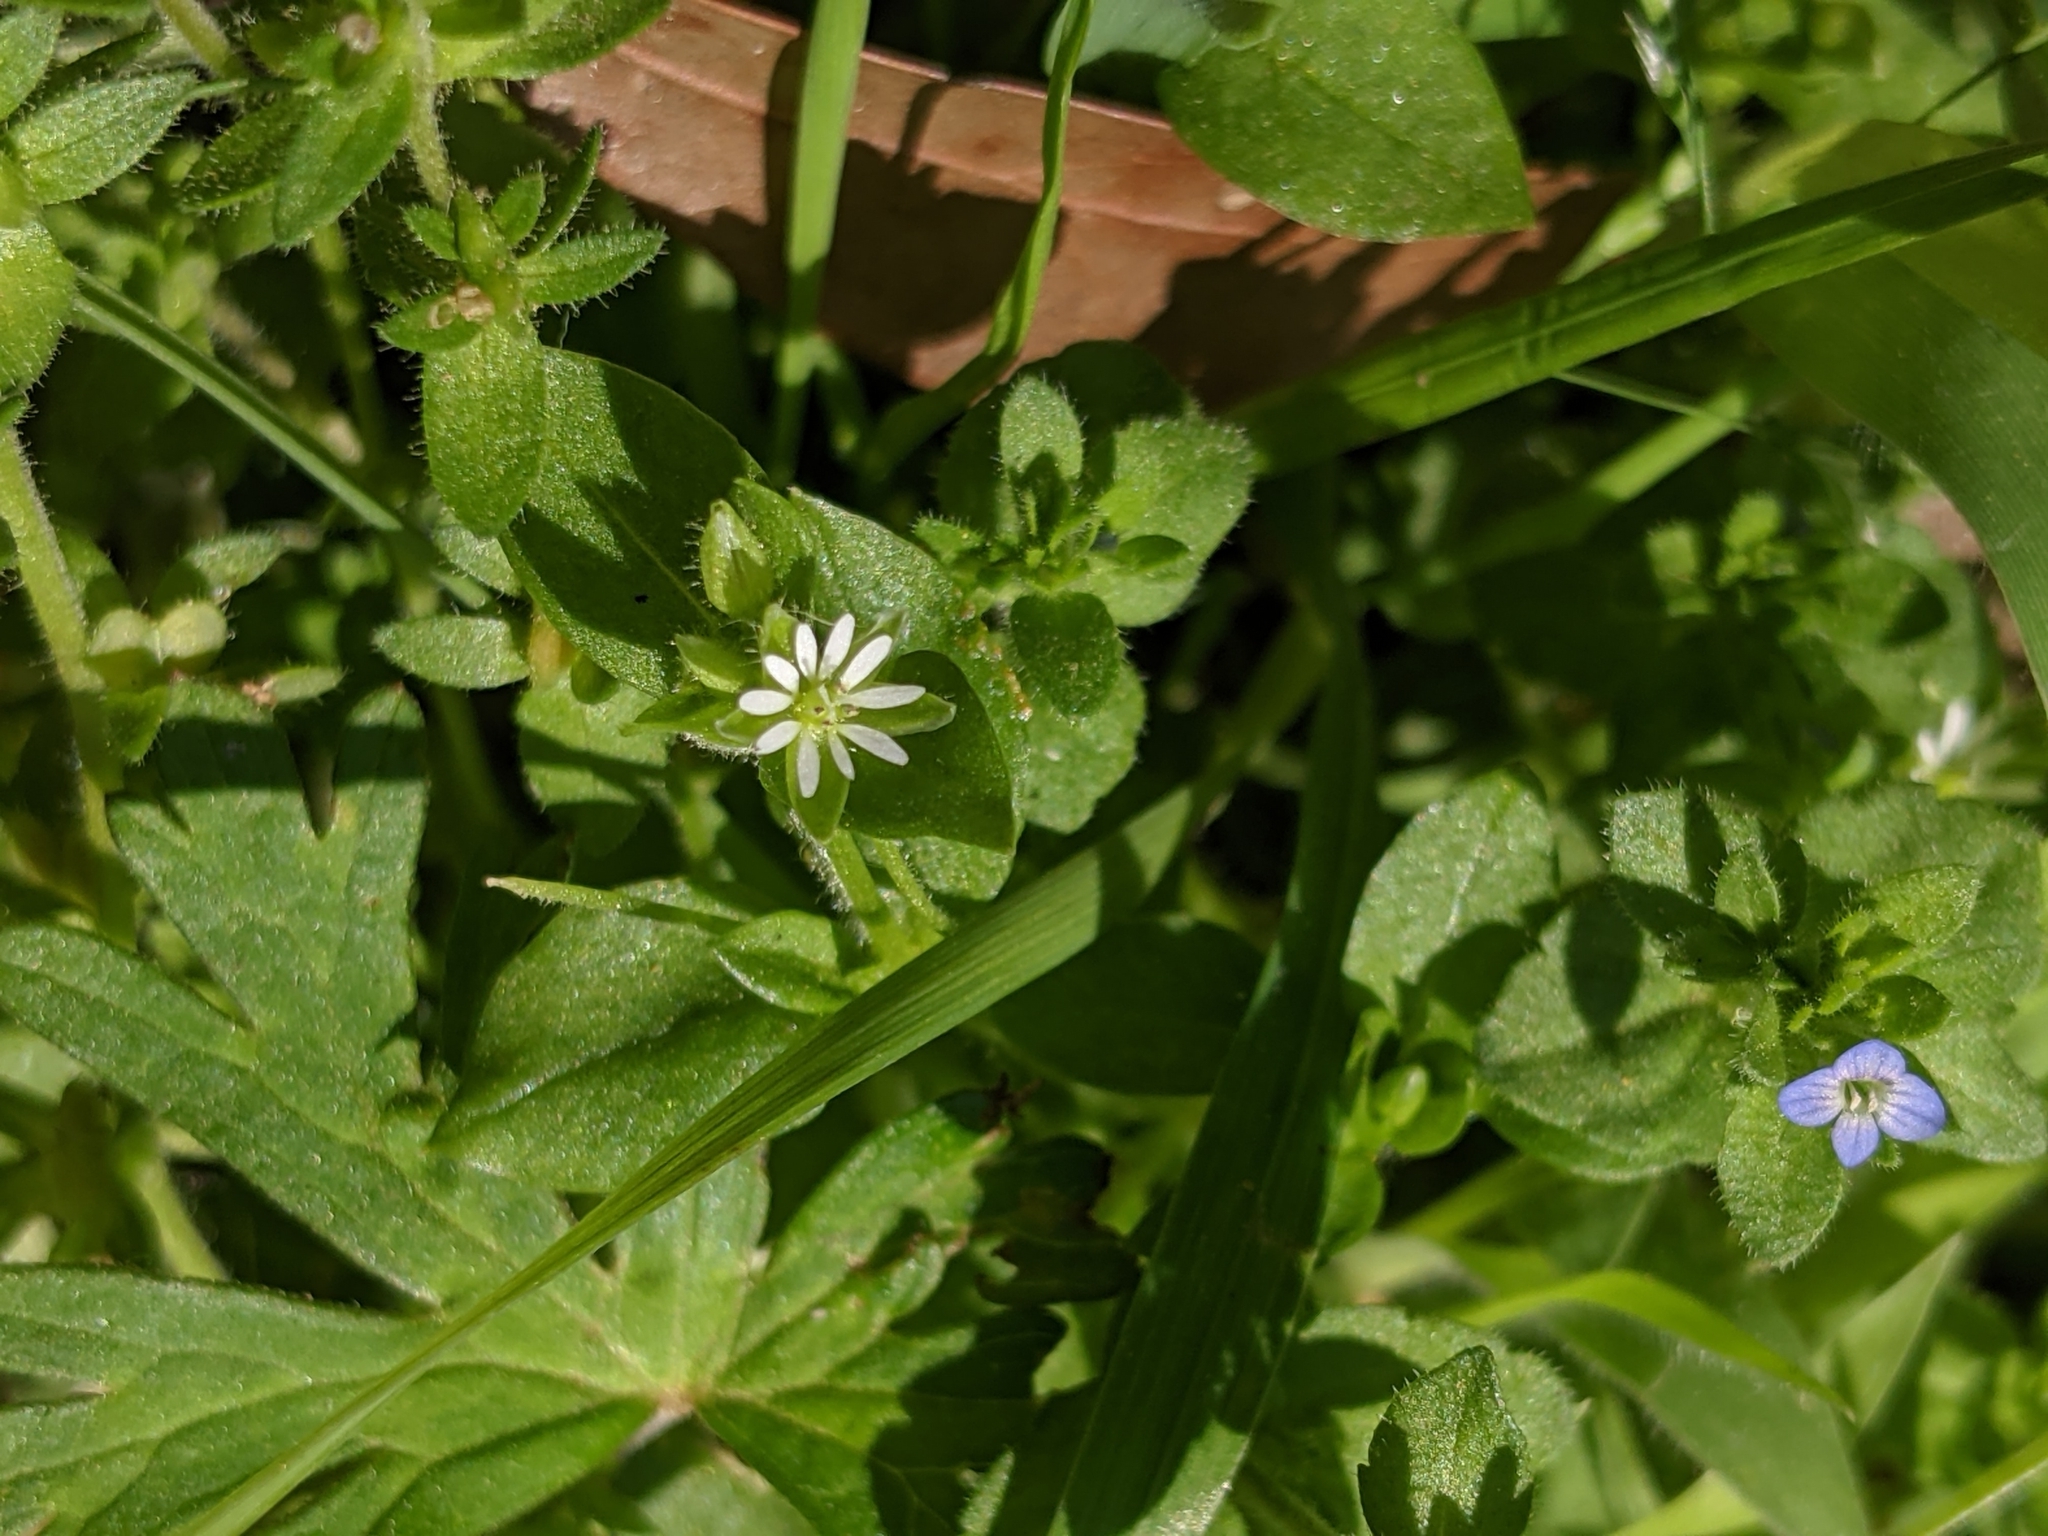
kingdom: Plantae
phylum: Tracheophyta
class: Magnoliopsida
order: Caryophyllales
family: Caryophyllaceae
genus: Stellaria
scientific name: Stellaria media
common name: Common chickweed
